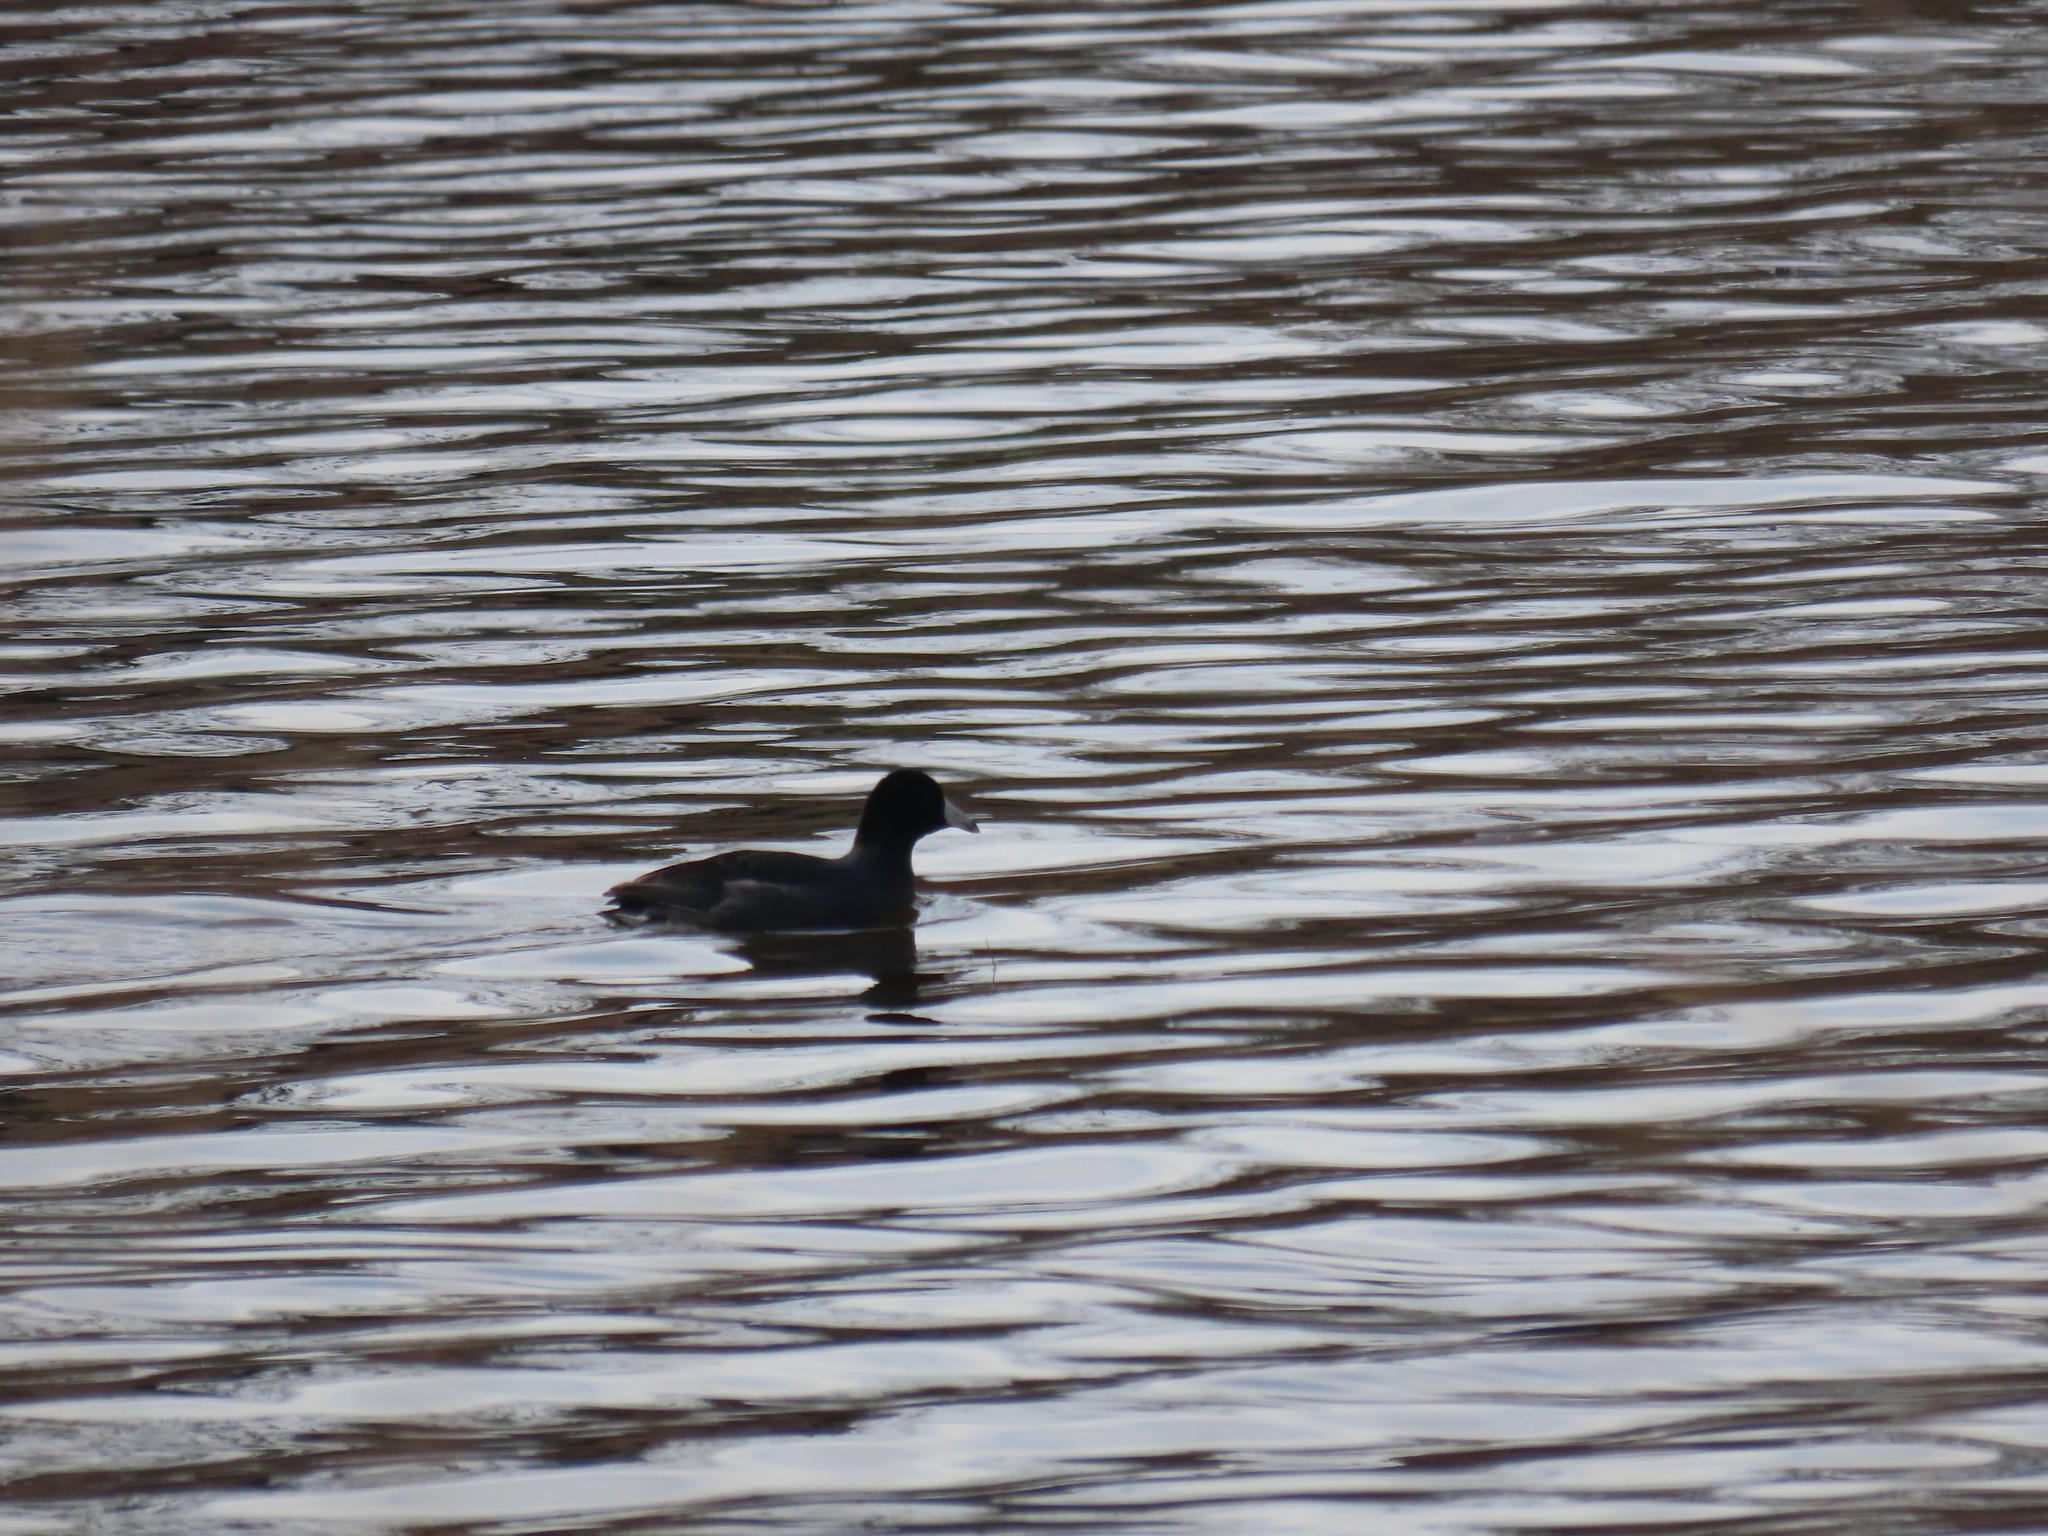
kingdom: Animalia
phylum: Chordata
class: Aves
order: Gruiformes
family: Rallidae
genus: Fulica
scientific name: Fulica americana
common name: American coot
